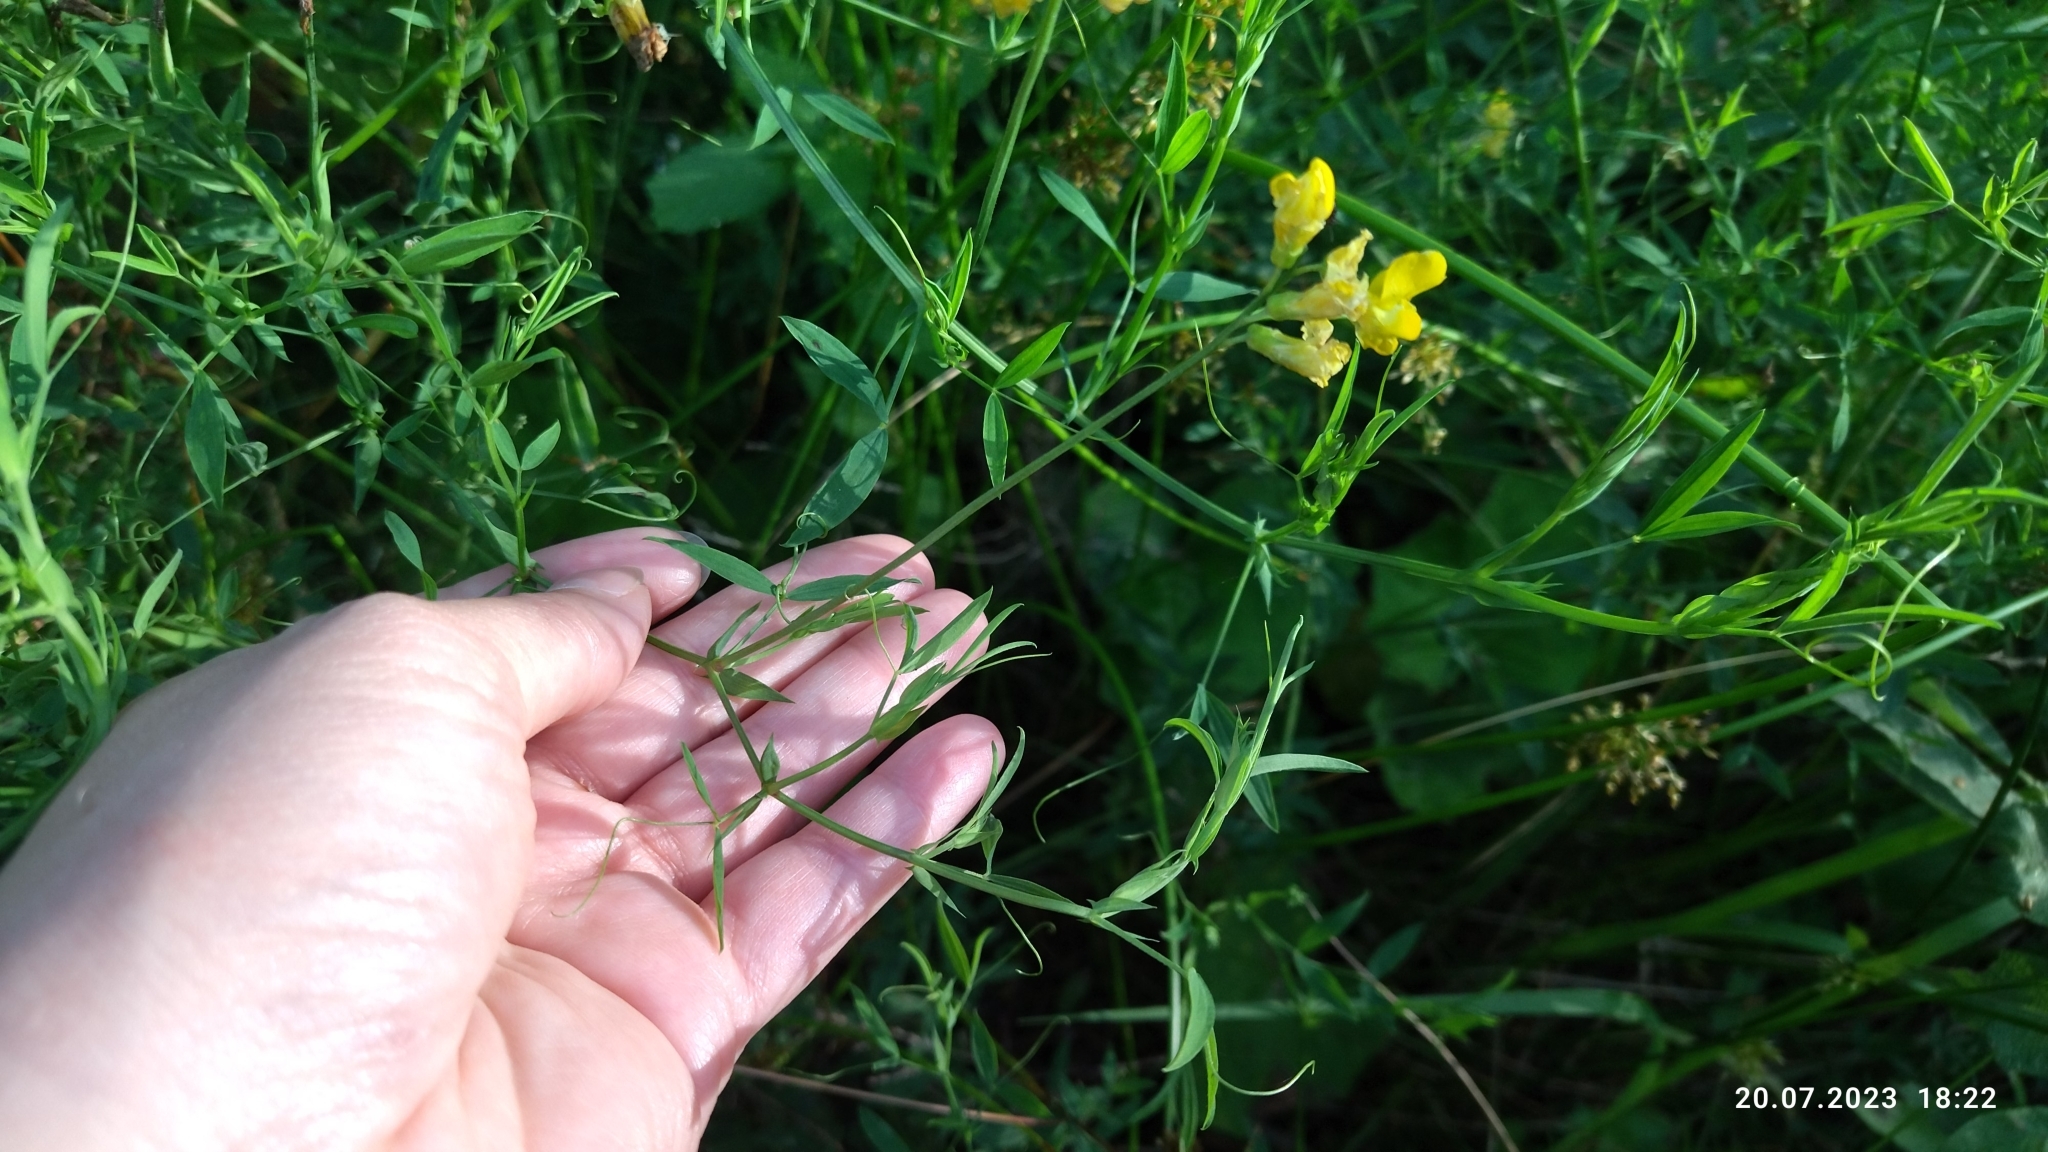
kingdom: Plantae
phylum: Tracheophyta
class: Magnoliopsida
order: Fabales
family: Fabaceae
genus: Lathyrus
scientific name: Lathyrus pratensis
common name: Meadow vetchling
